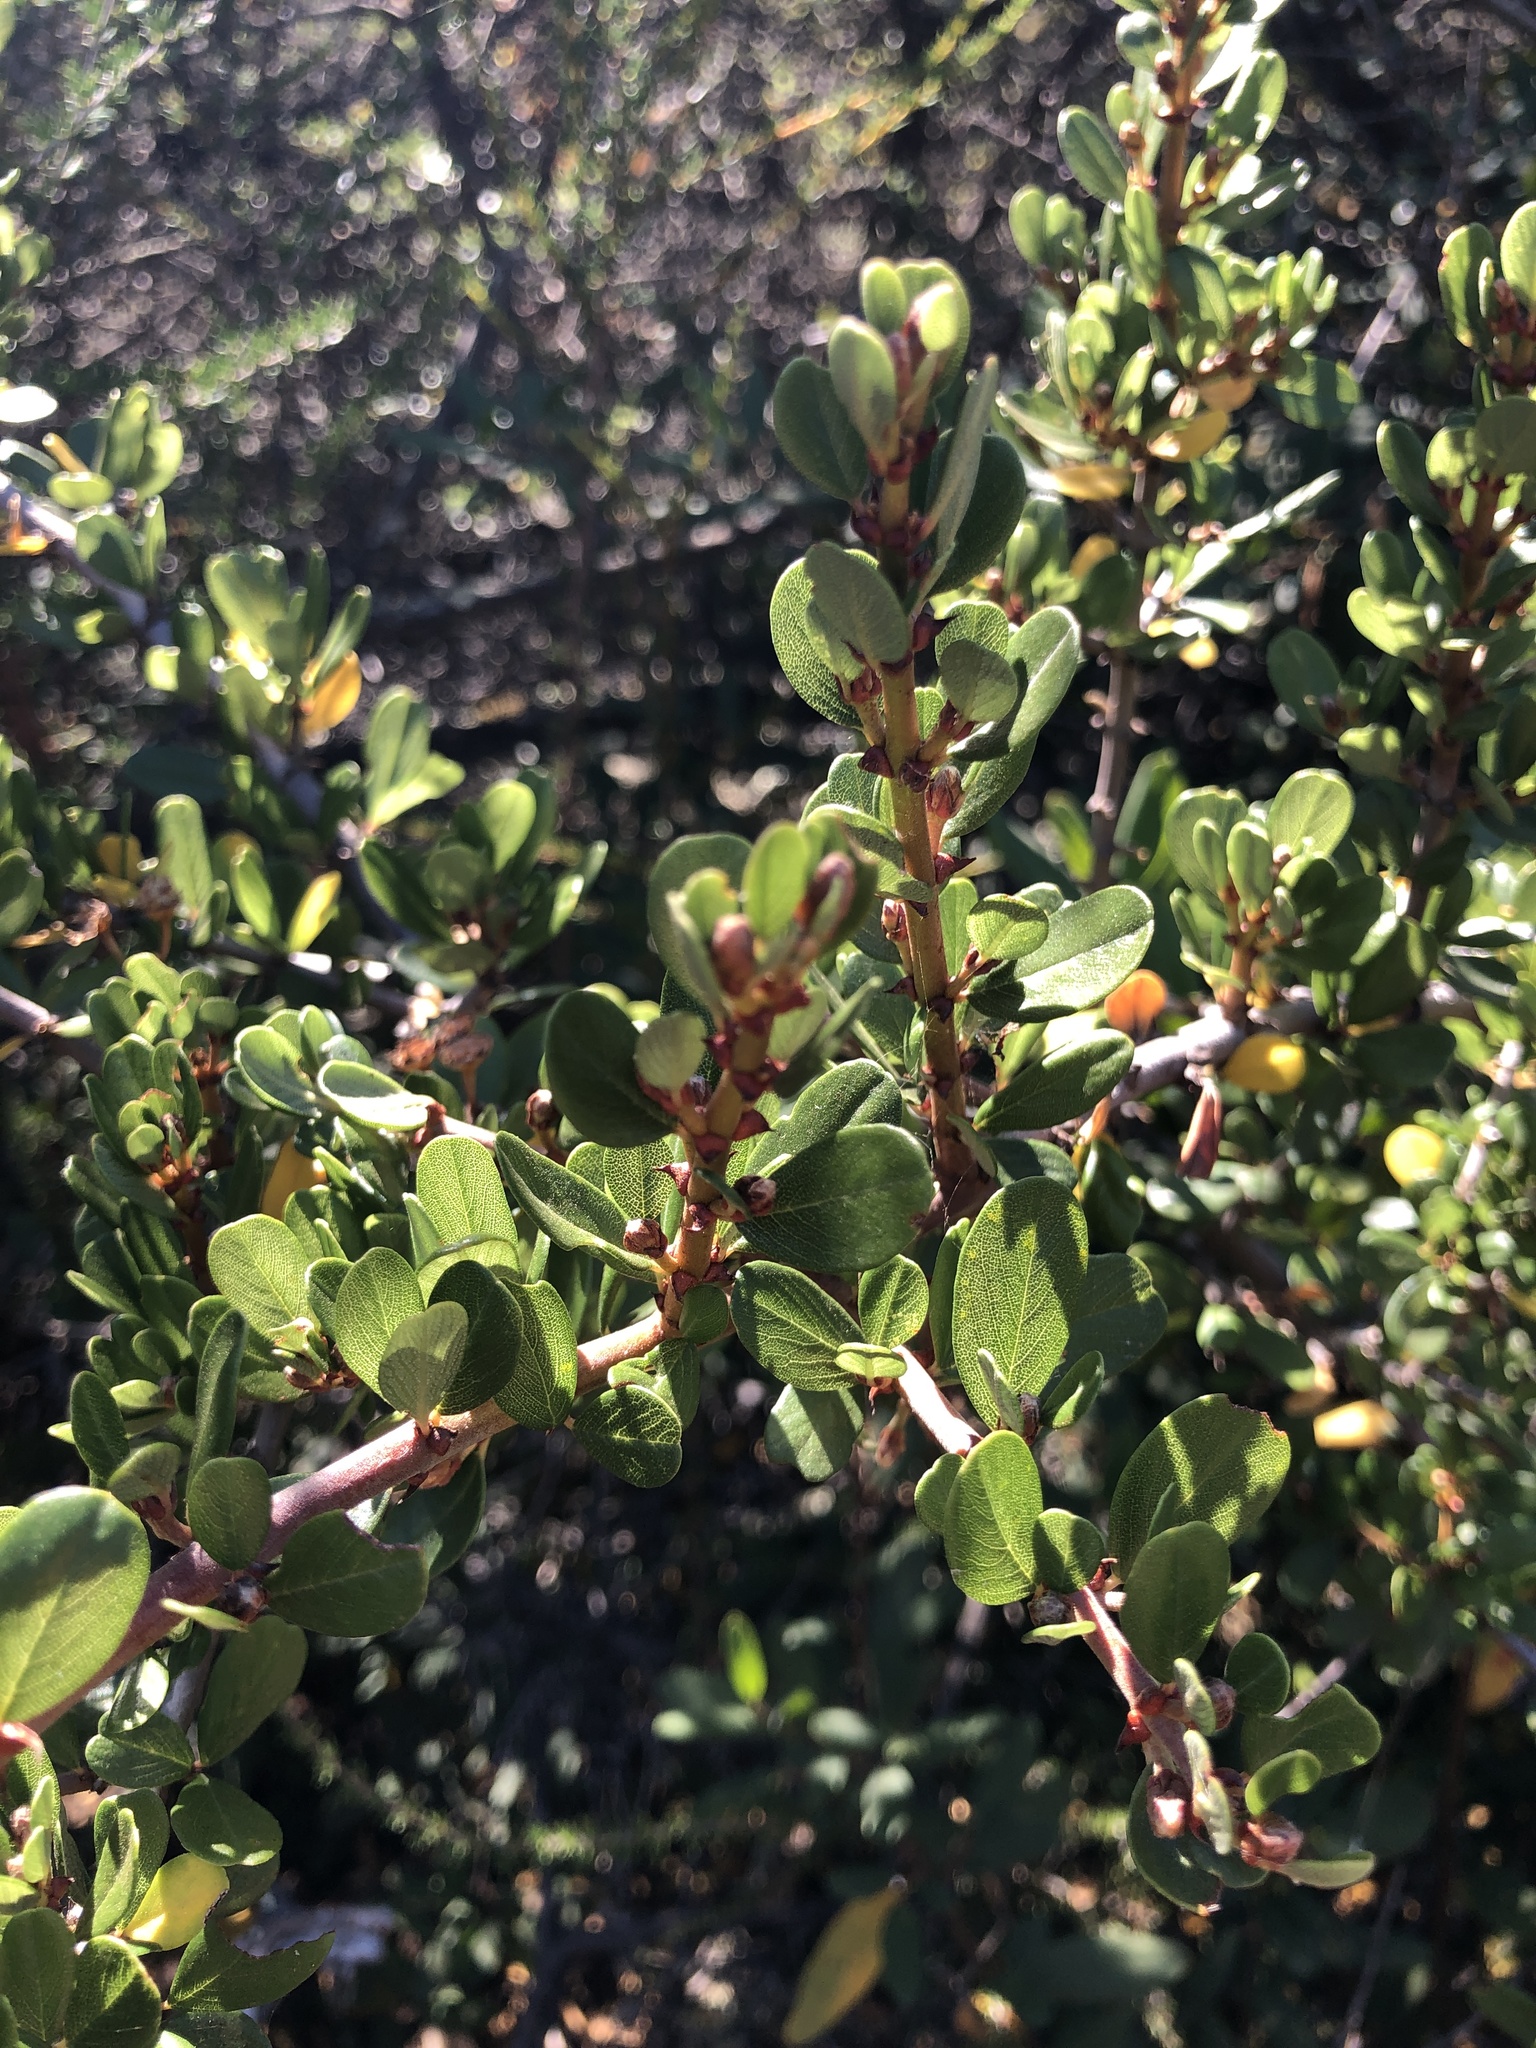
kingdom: Plantae
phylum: Tracheophyta
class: Magnoliopsida
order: Rosales
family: Rhamnaceae
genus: Ceanothus
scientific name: Ceanothus cuneatus
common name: Cuneate ceanothus
